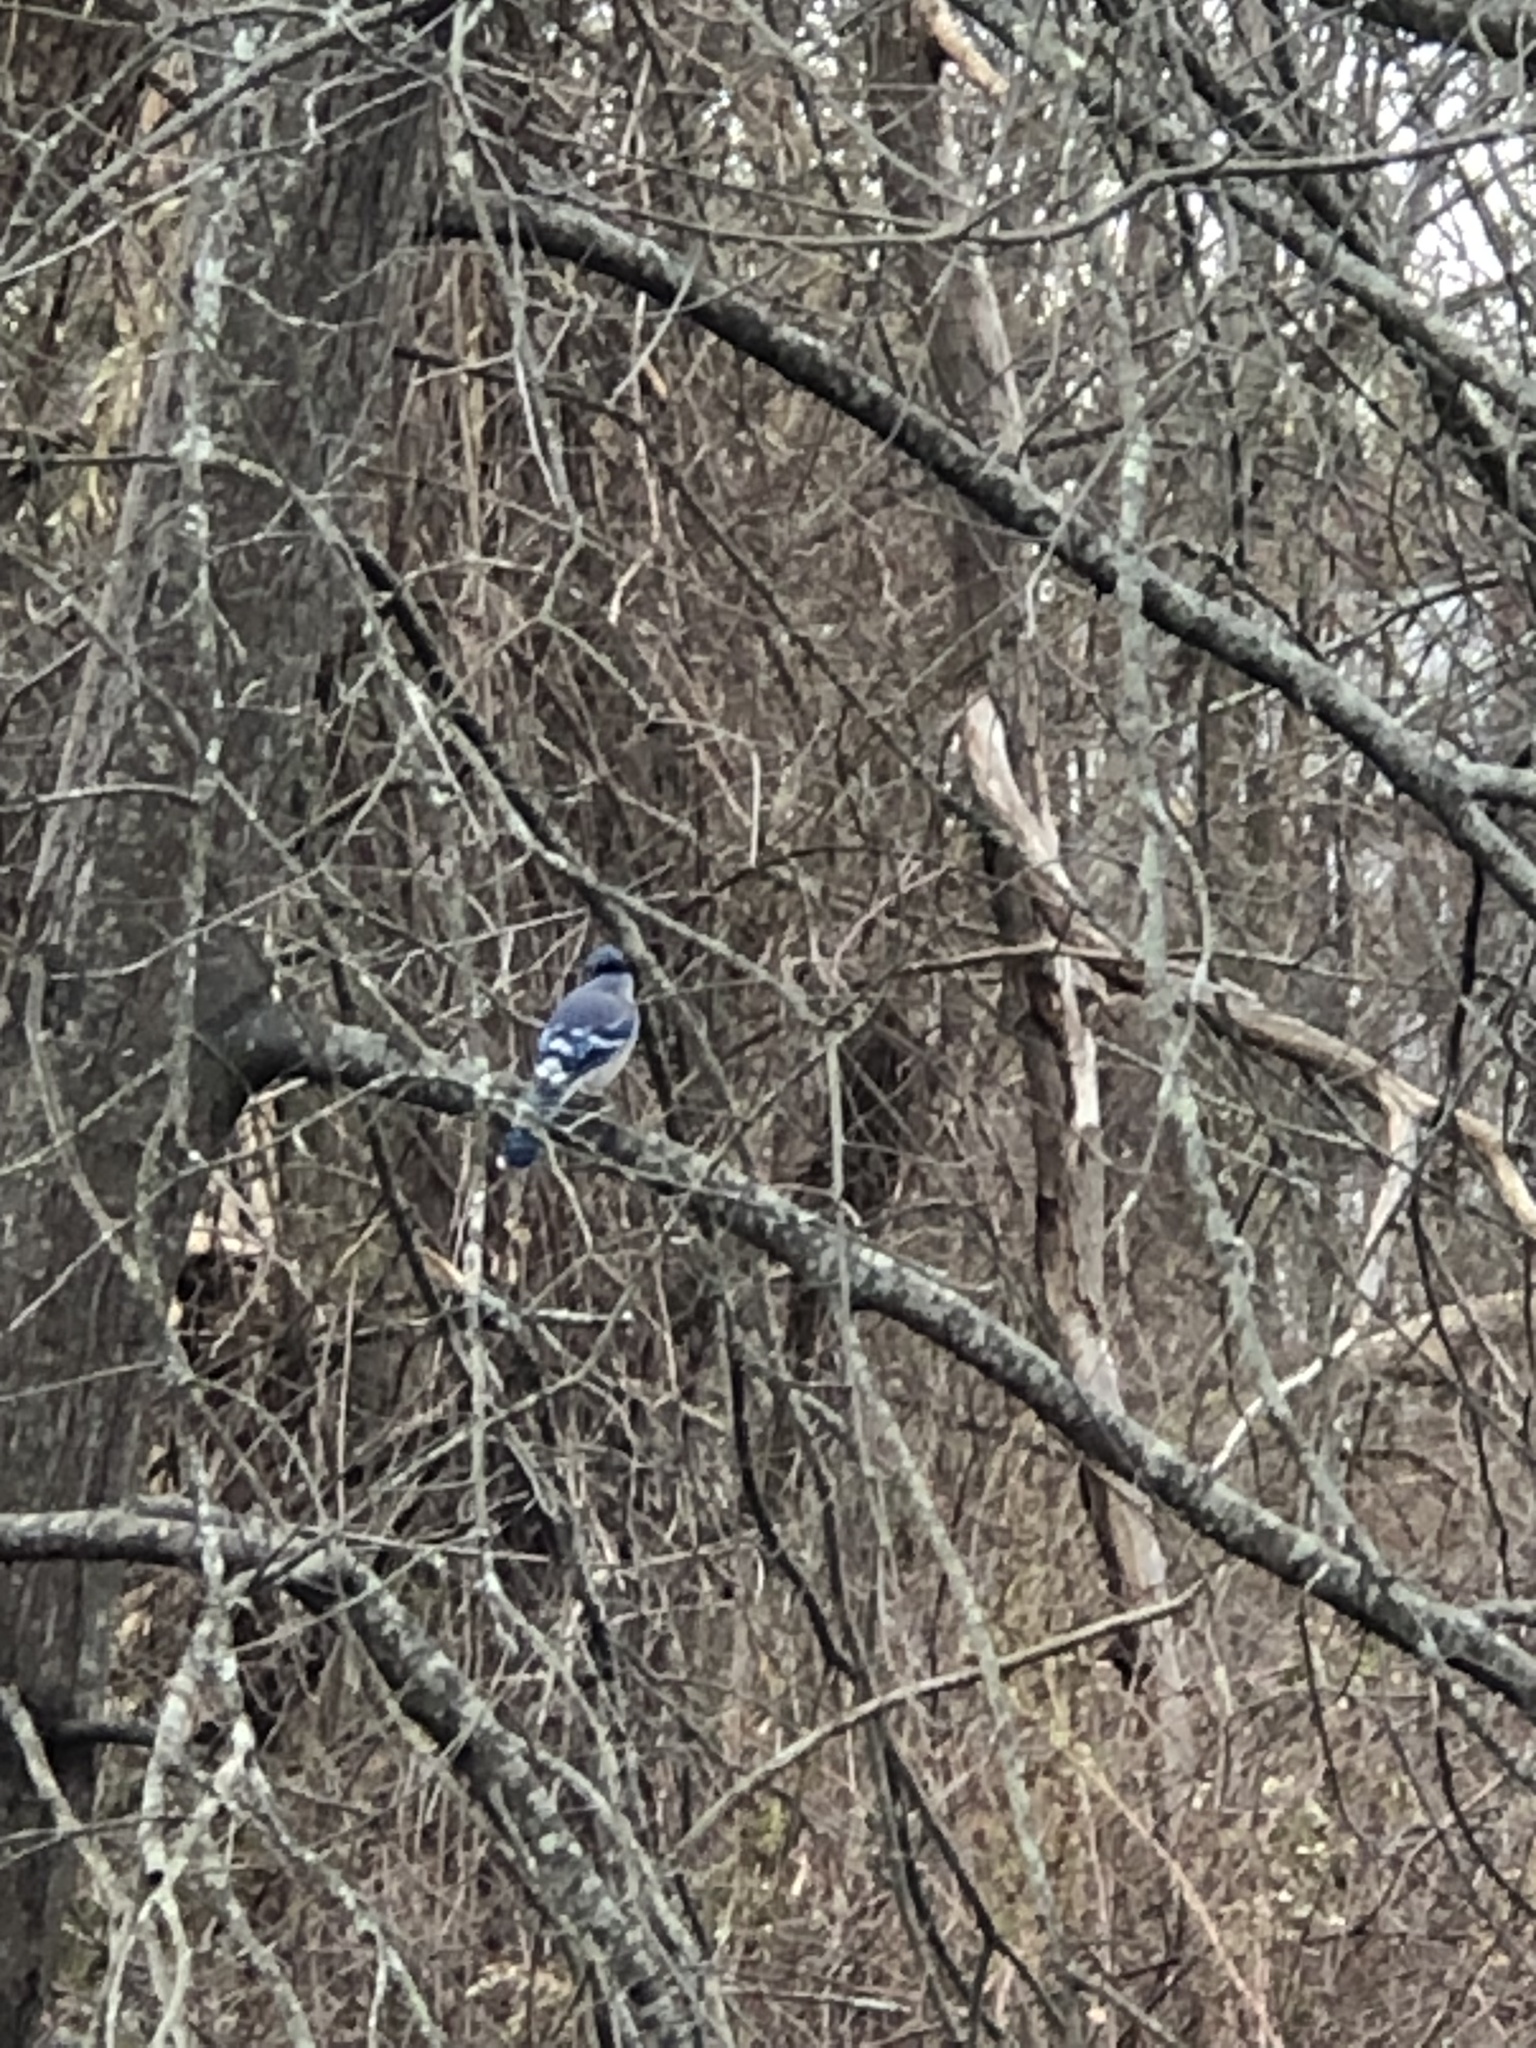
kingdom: Animalia
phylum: Chordata
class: Aves
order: Passeriformes
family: Corvidae
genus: Cyanocitta
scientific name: Cyanocitta cristata
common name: Blue jay
